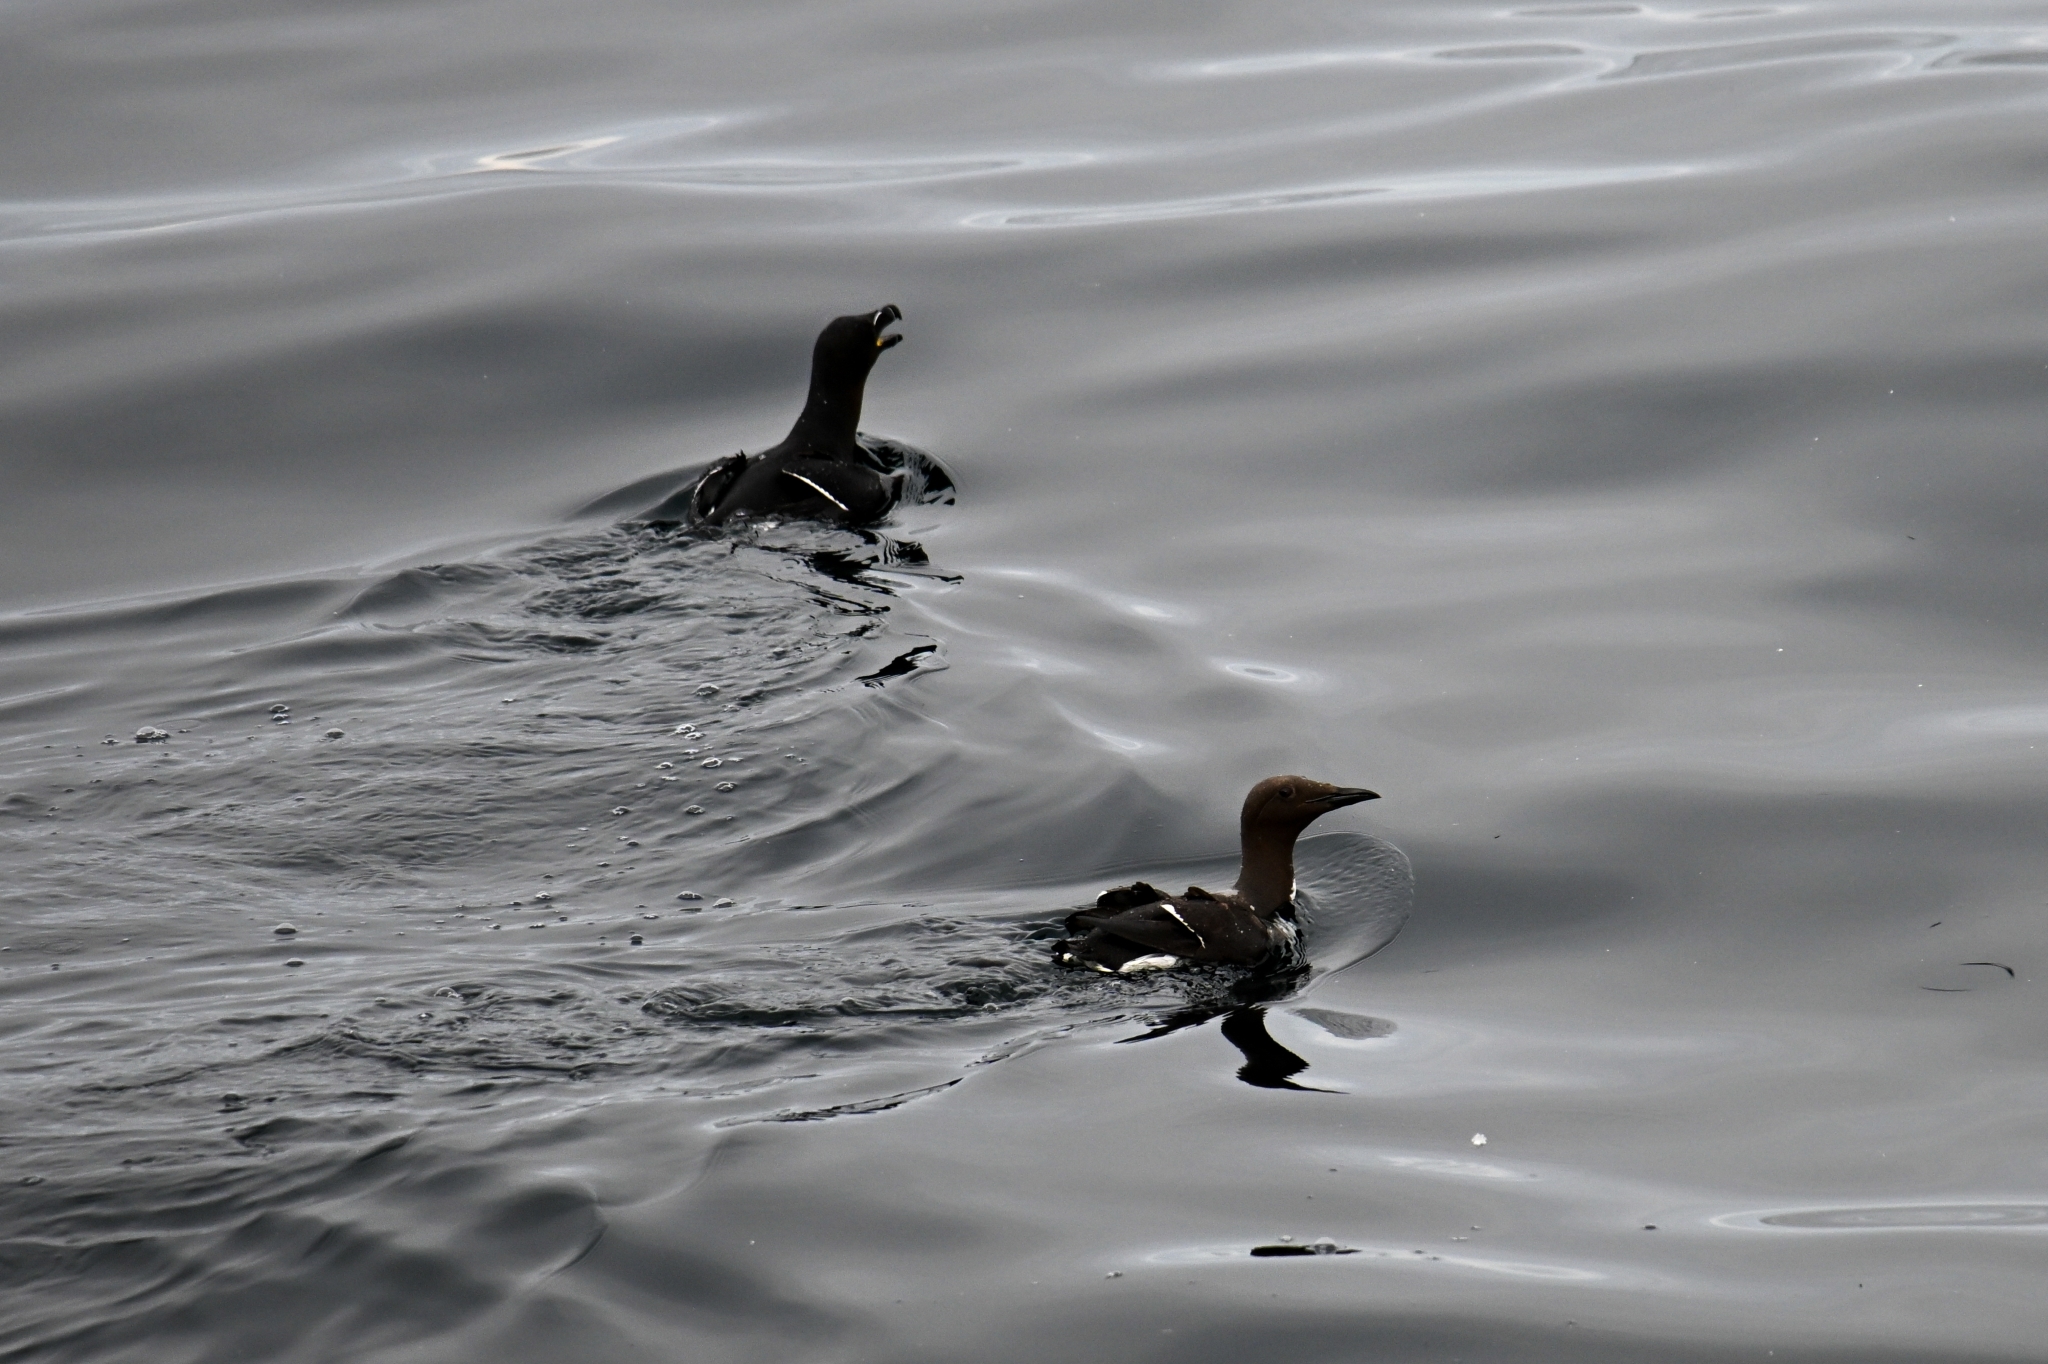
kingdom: Animalia
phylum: Chordata
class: Aves
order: Charadriiformes
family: Alcidae
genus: Alca
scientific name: Alca torda
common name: Razorbill
